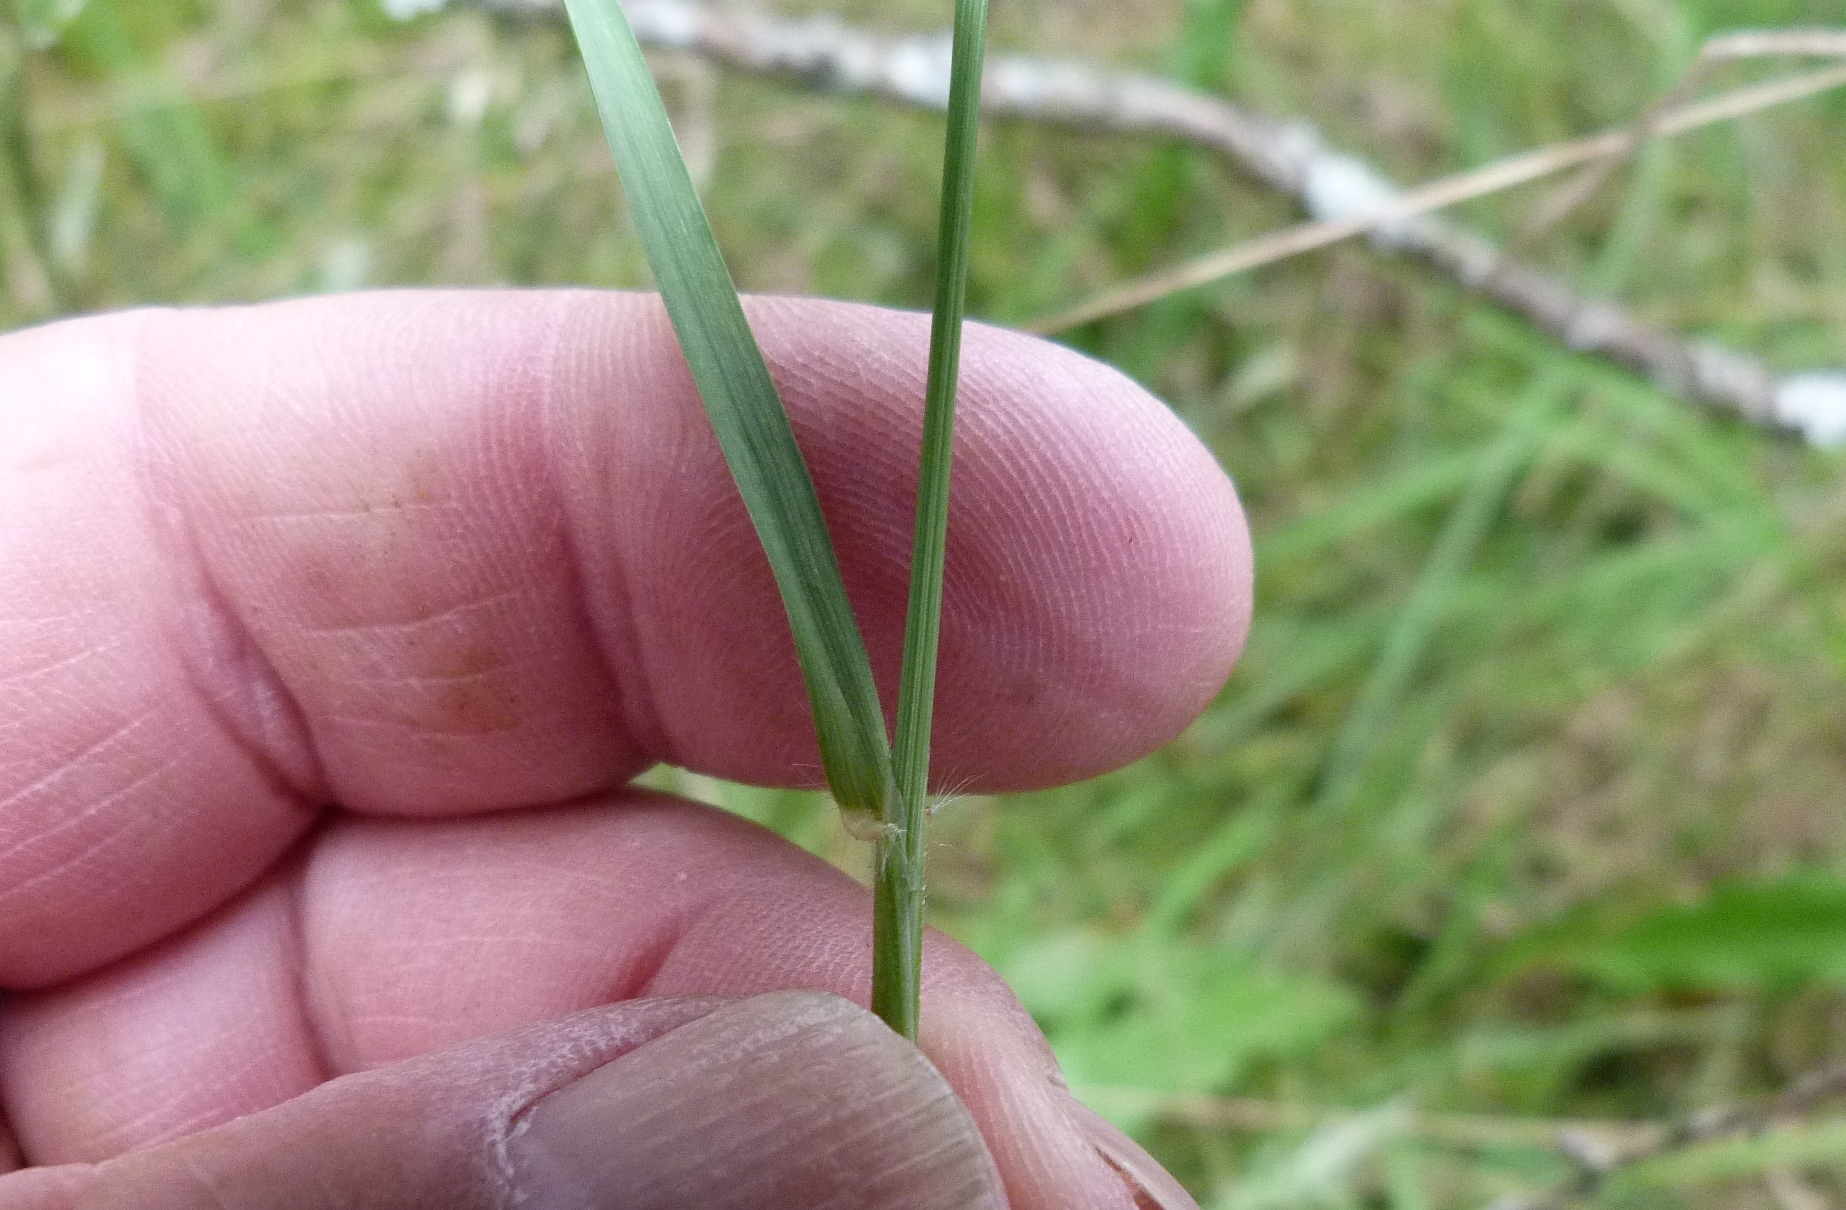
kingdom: Plantae
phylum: Tracheophyta
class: Liliopsida
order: Poales
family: Poaceae
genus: Anthoxanthum
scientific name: Anthoxanthum odoratum
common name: Sweet vernalgrass
